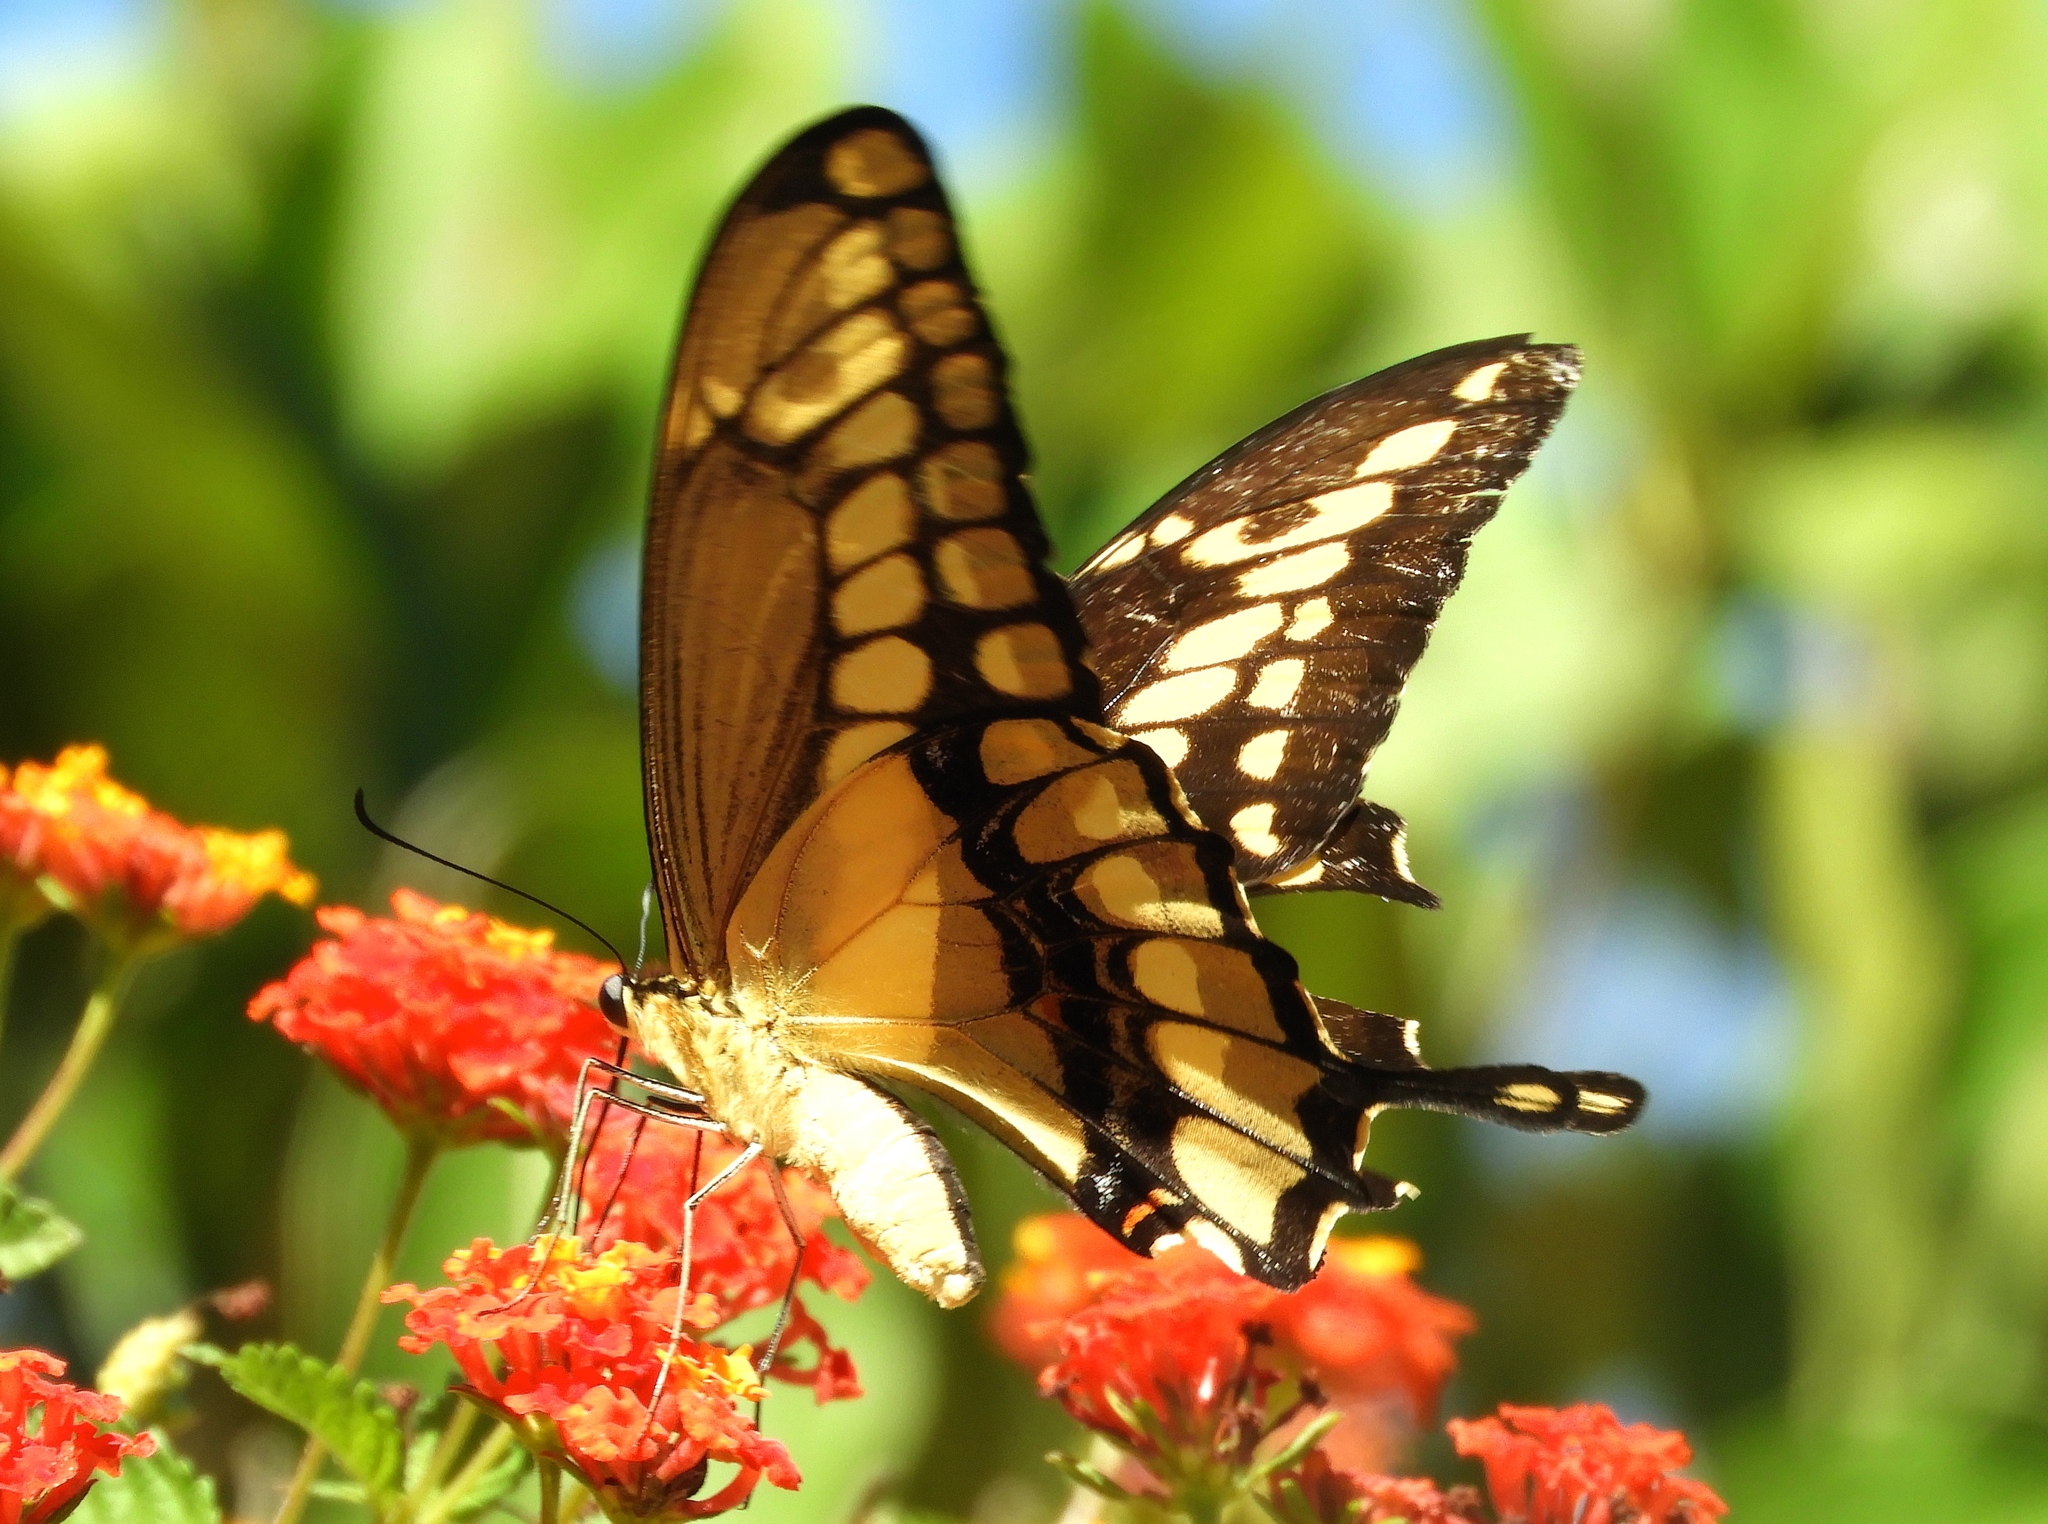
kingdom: Animalia
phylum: Arthropoda
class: Insecta
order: Lepidoptera
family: Papilionidae
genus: Papilio
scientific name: Papilio thoas
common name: King swallowtail
